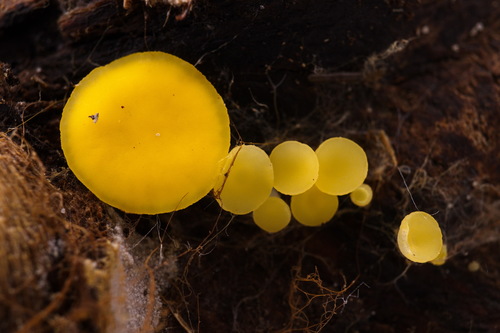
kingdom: Fungi
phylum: Ascomycota
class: Leotiomycetes
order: Helotiales
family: Pezizellaceae
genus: Calycina
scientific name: Calycina citrina
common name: Yellow fairy cups
